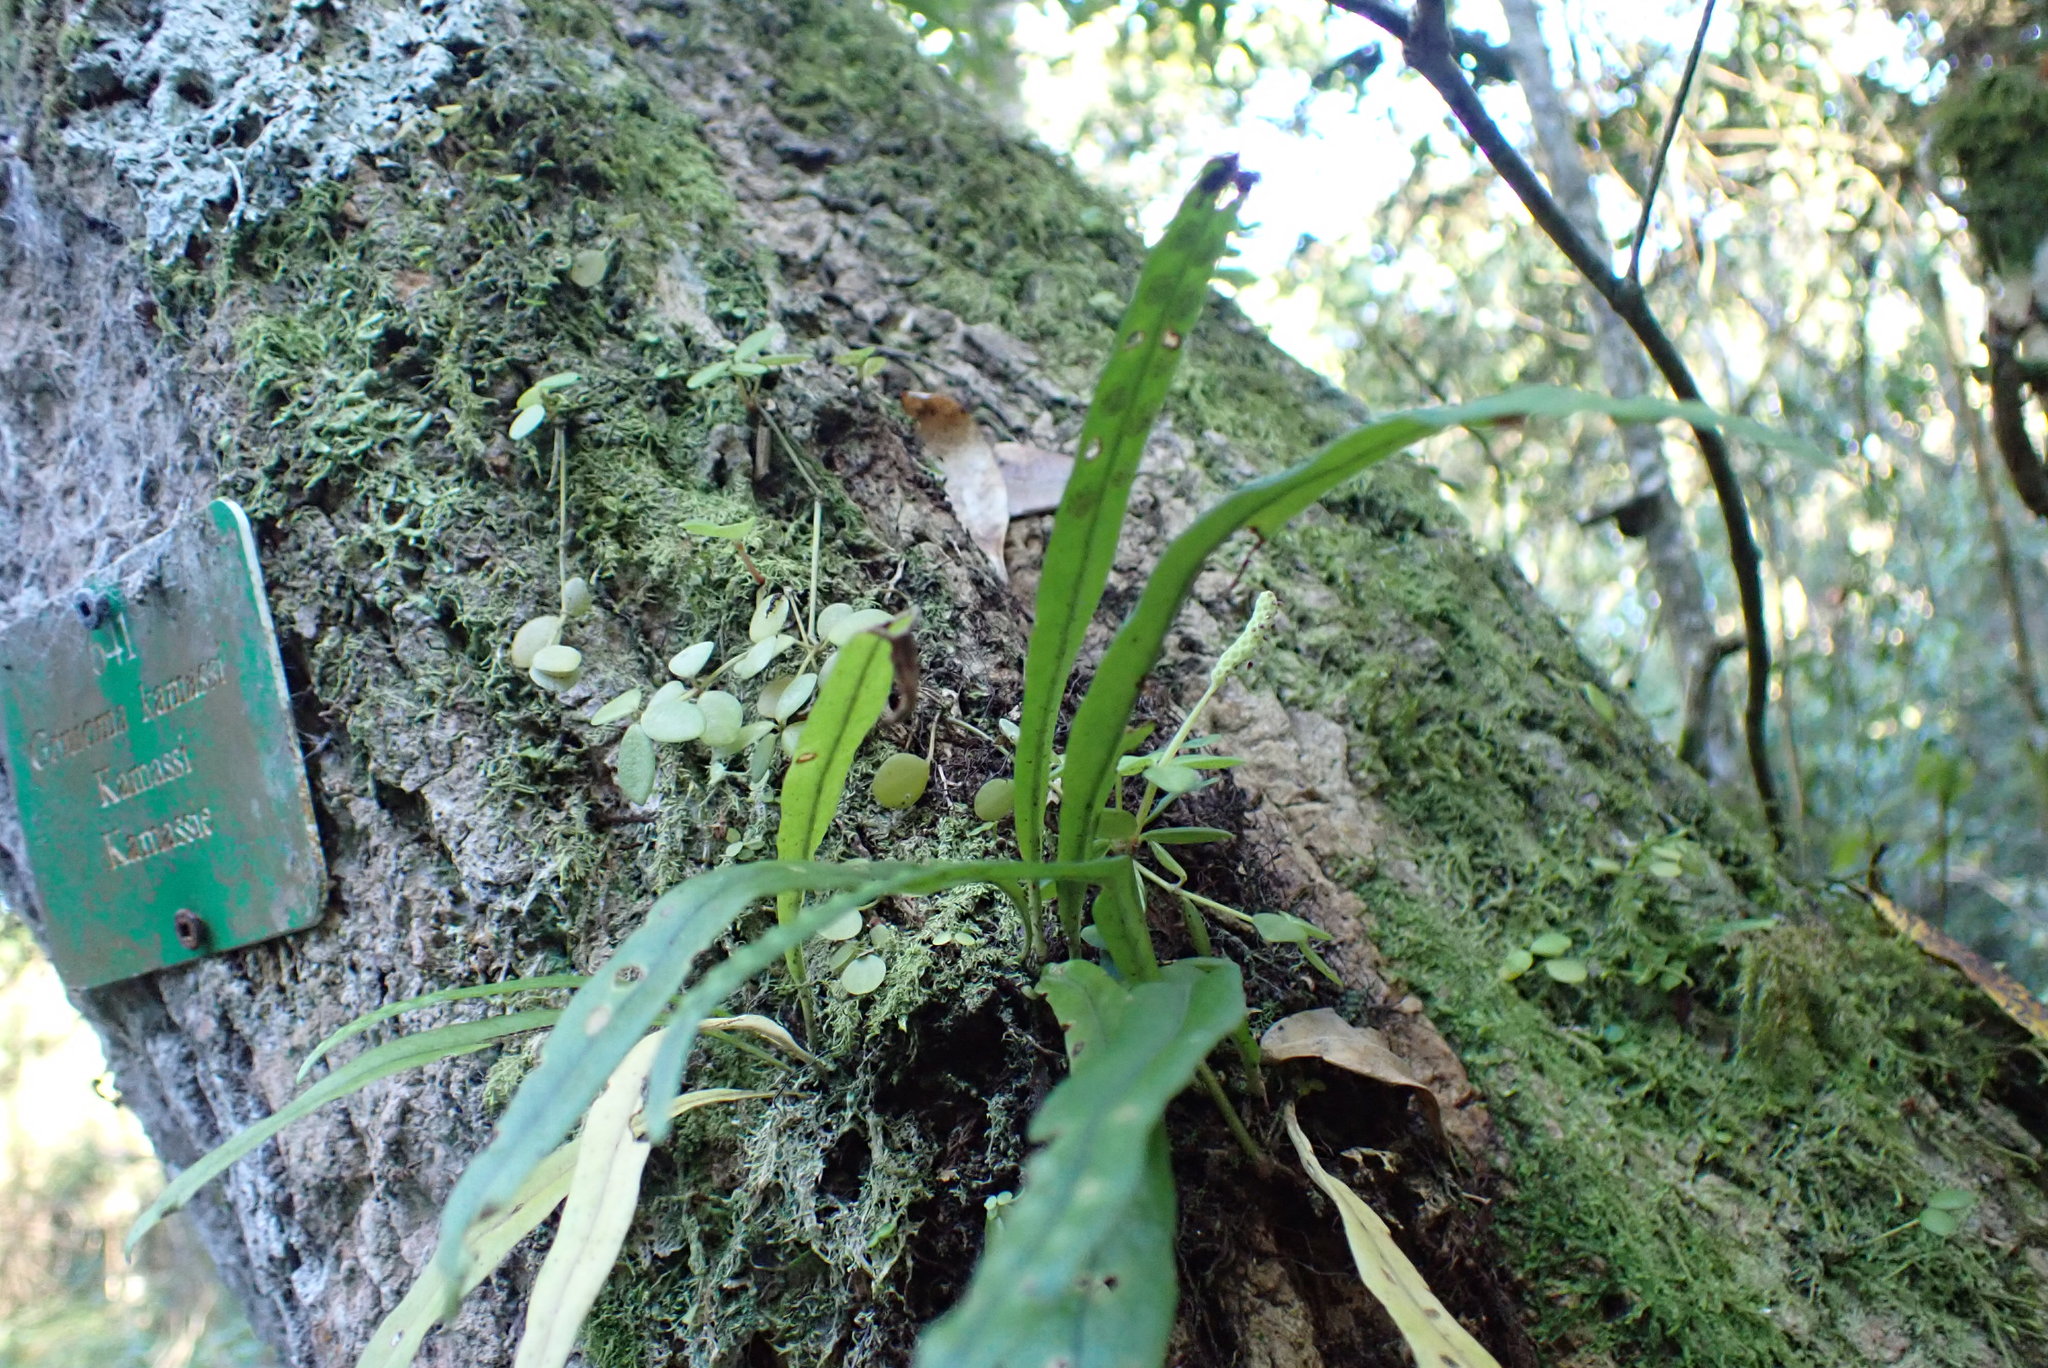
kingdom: Plantae
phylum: Tracheophyta
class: Polypodiopsida
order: Polypodiales
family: Polypodiaceae
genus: Pleopeltis
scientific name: Pleopeltis macrocarpa
